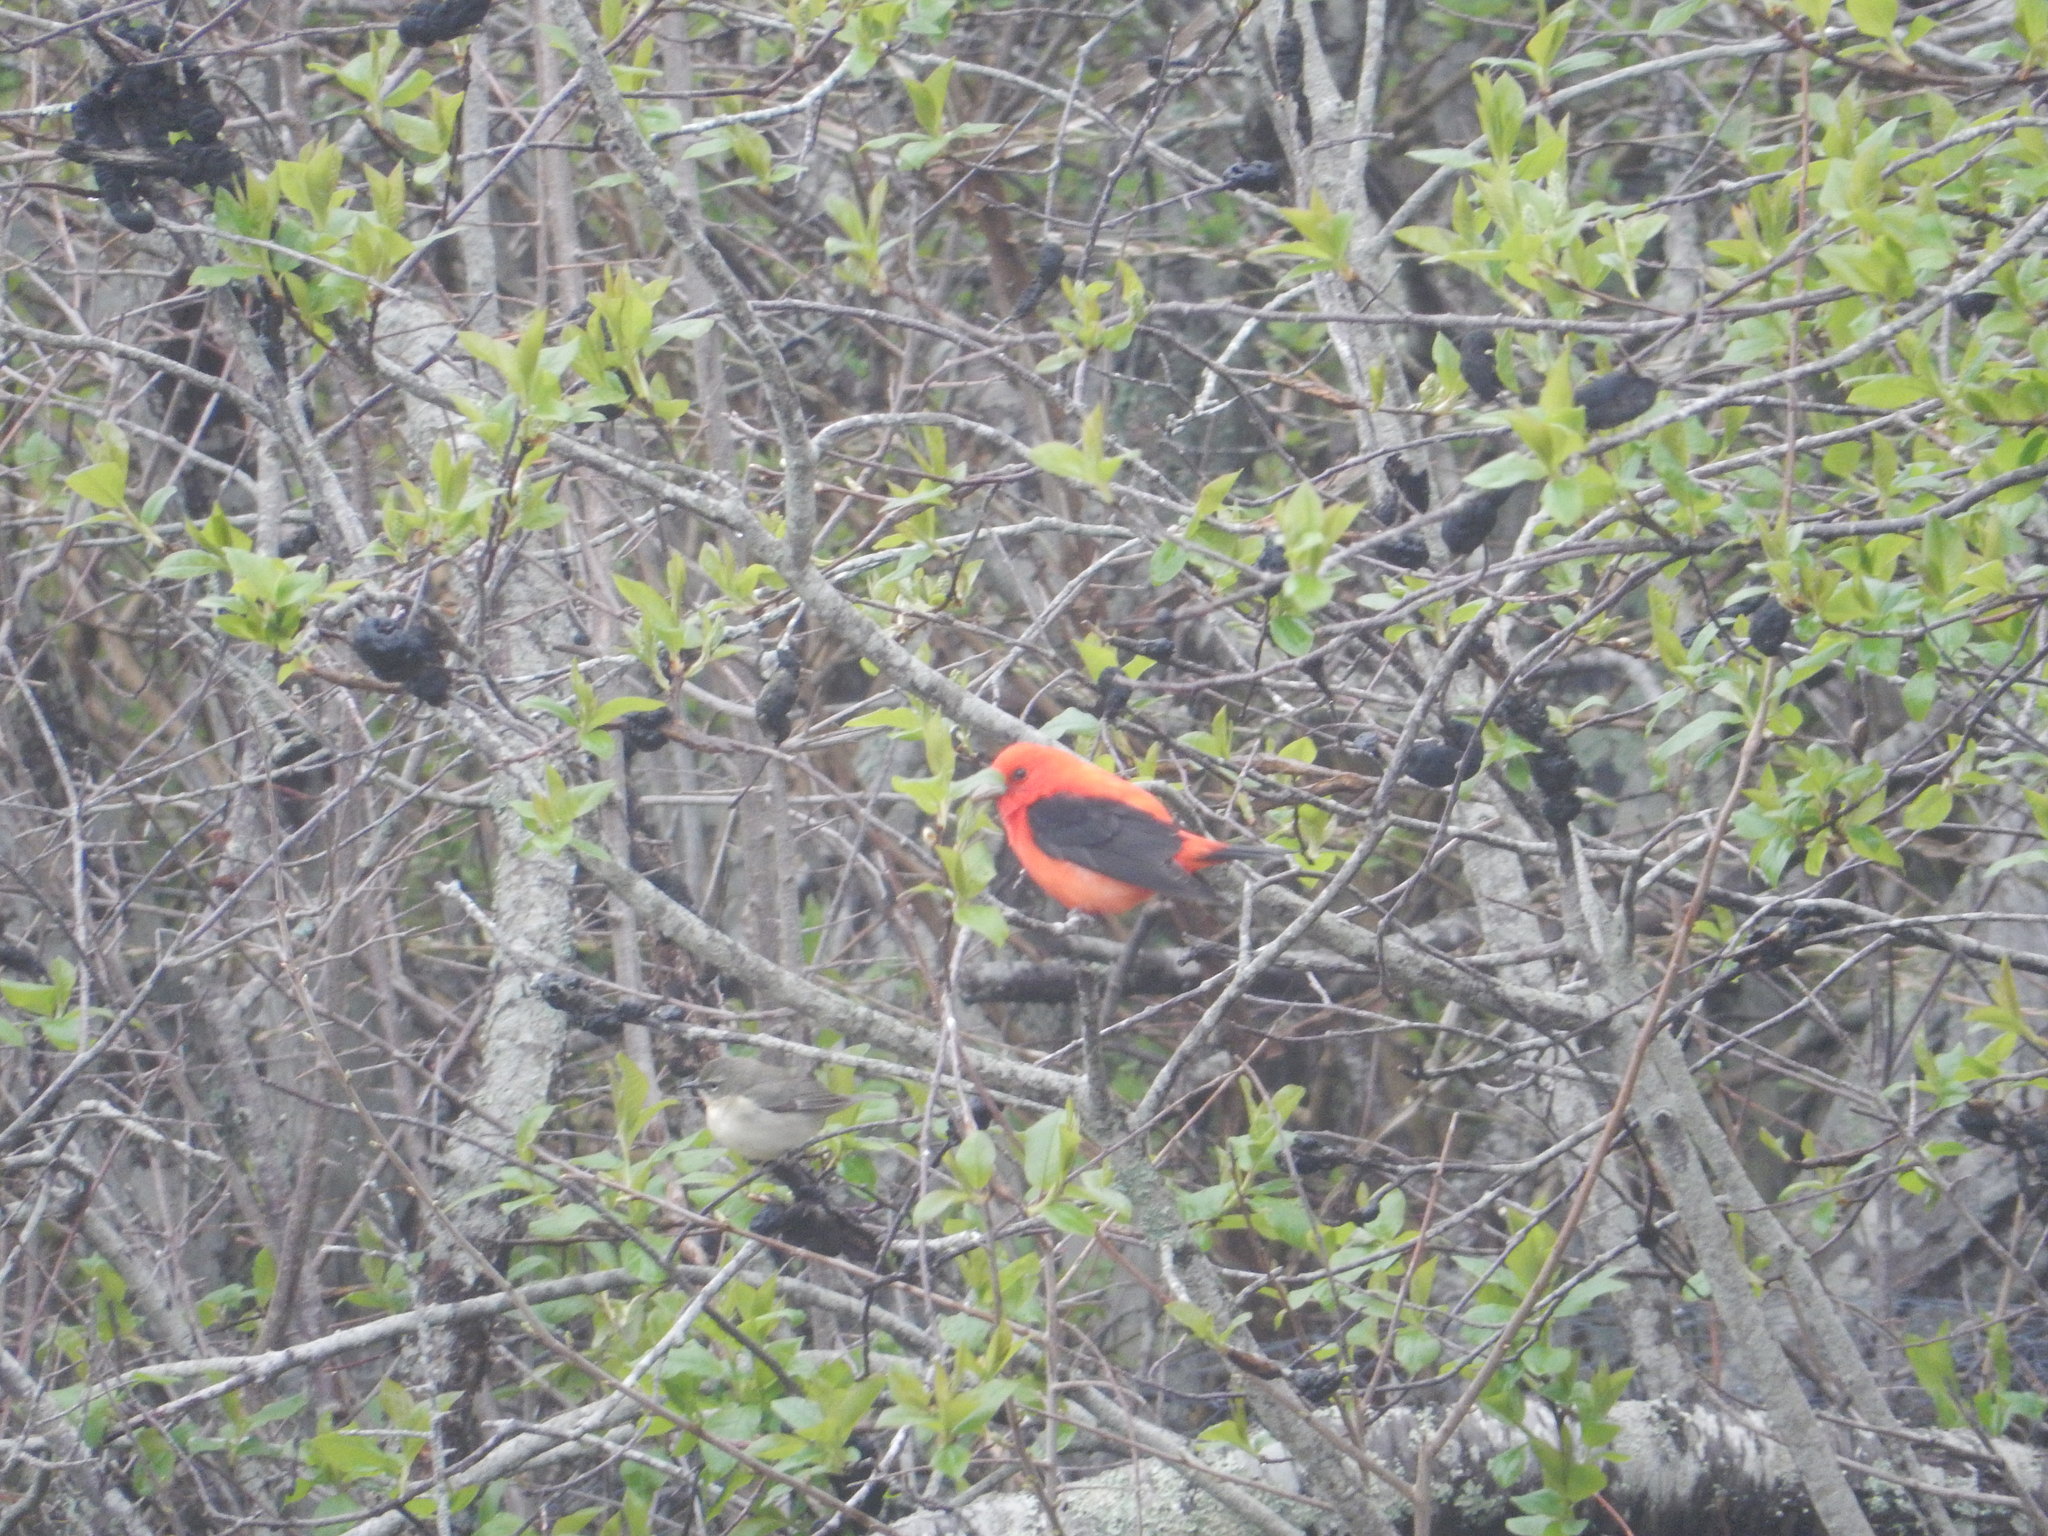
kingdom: Animalia
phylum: Chordata
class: Aves
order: Passeriformes
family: Cardinalidae
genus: Piranga
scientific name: Piranga olivacea
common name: Scarlet tanager
